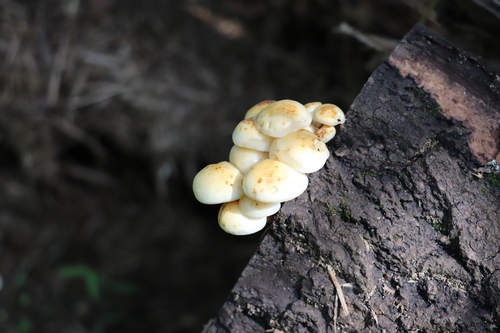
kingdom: Fungi
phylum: Basidiomycota
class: Agaricomycetes
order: Agaricales
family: Physalacriaceae
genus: Flammulina
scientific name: Flammulina populicola
